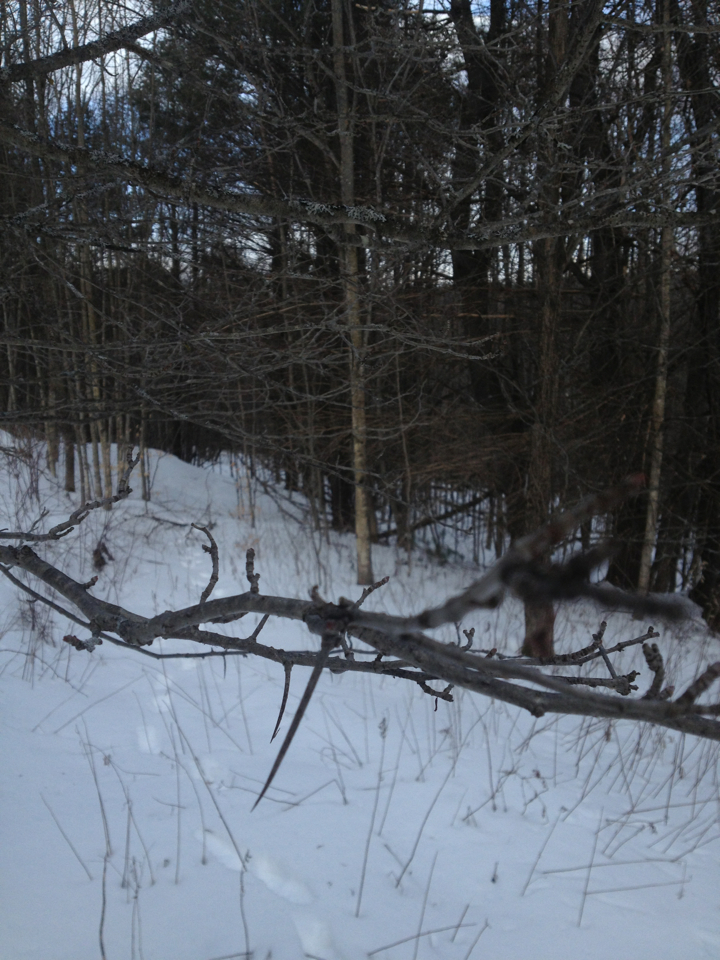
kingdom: Plantae
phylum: Tracheophyta
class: Magnoliopsida
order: Rosales
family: Rosaceae
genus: Crataegus
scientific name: Crataegus
